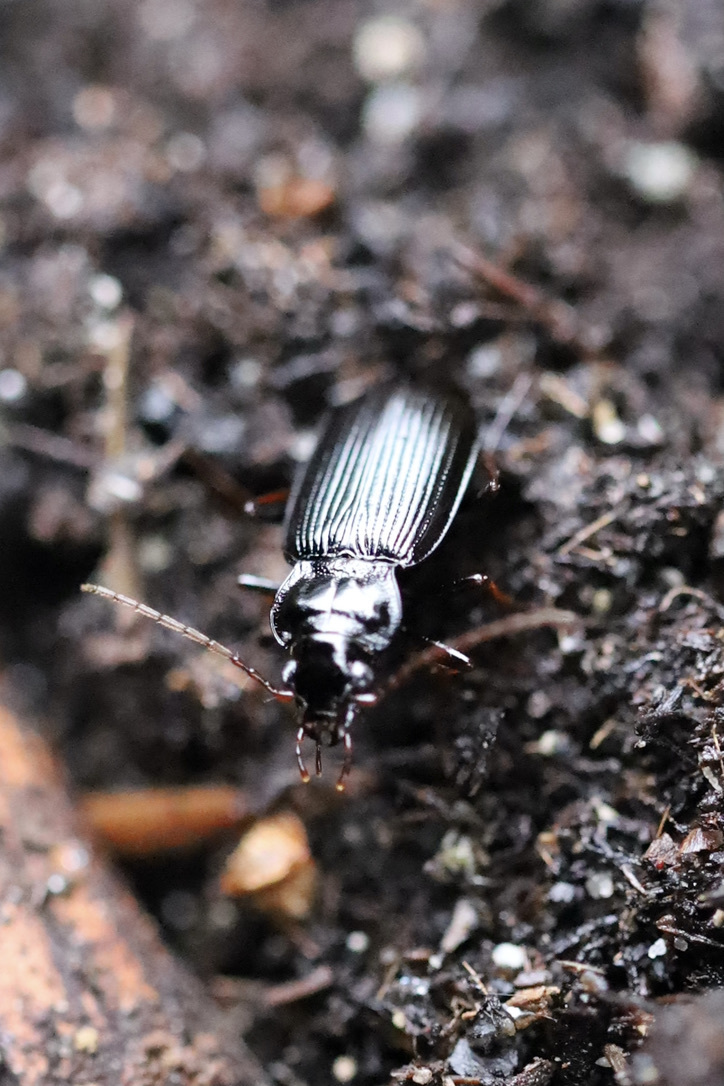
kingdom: Animalia
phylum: Arthropoda
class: Insecta
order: Coleoptera
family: Carabidae
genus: Nebria
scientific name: Nebria brevicollis
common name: Short-necked gazelle beetle
